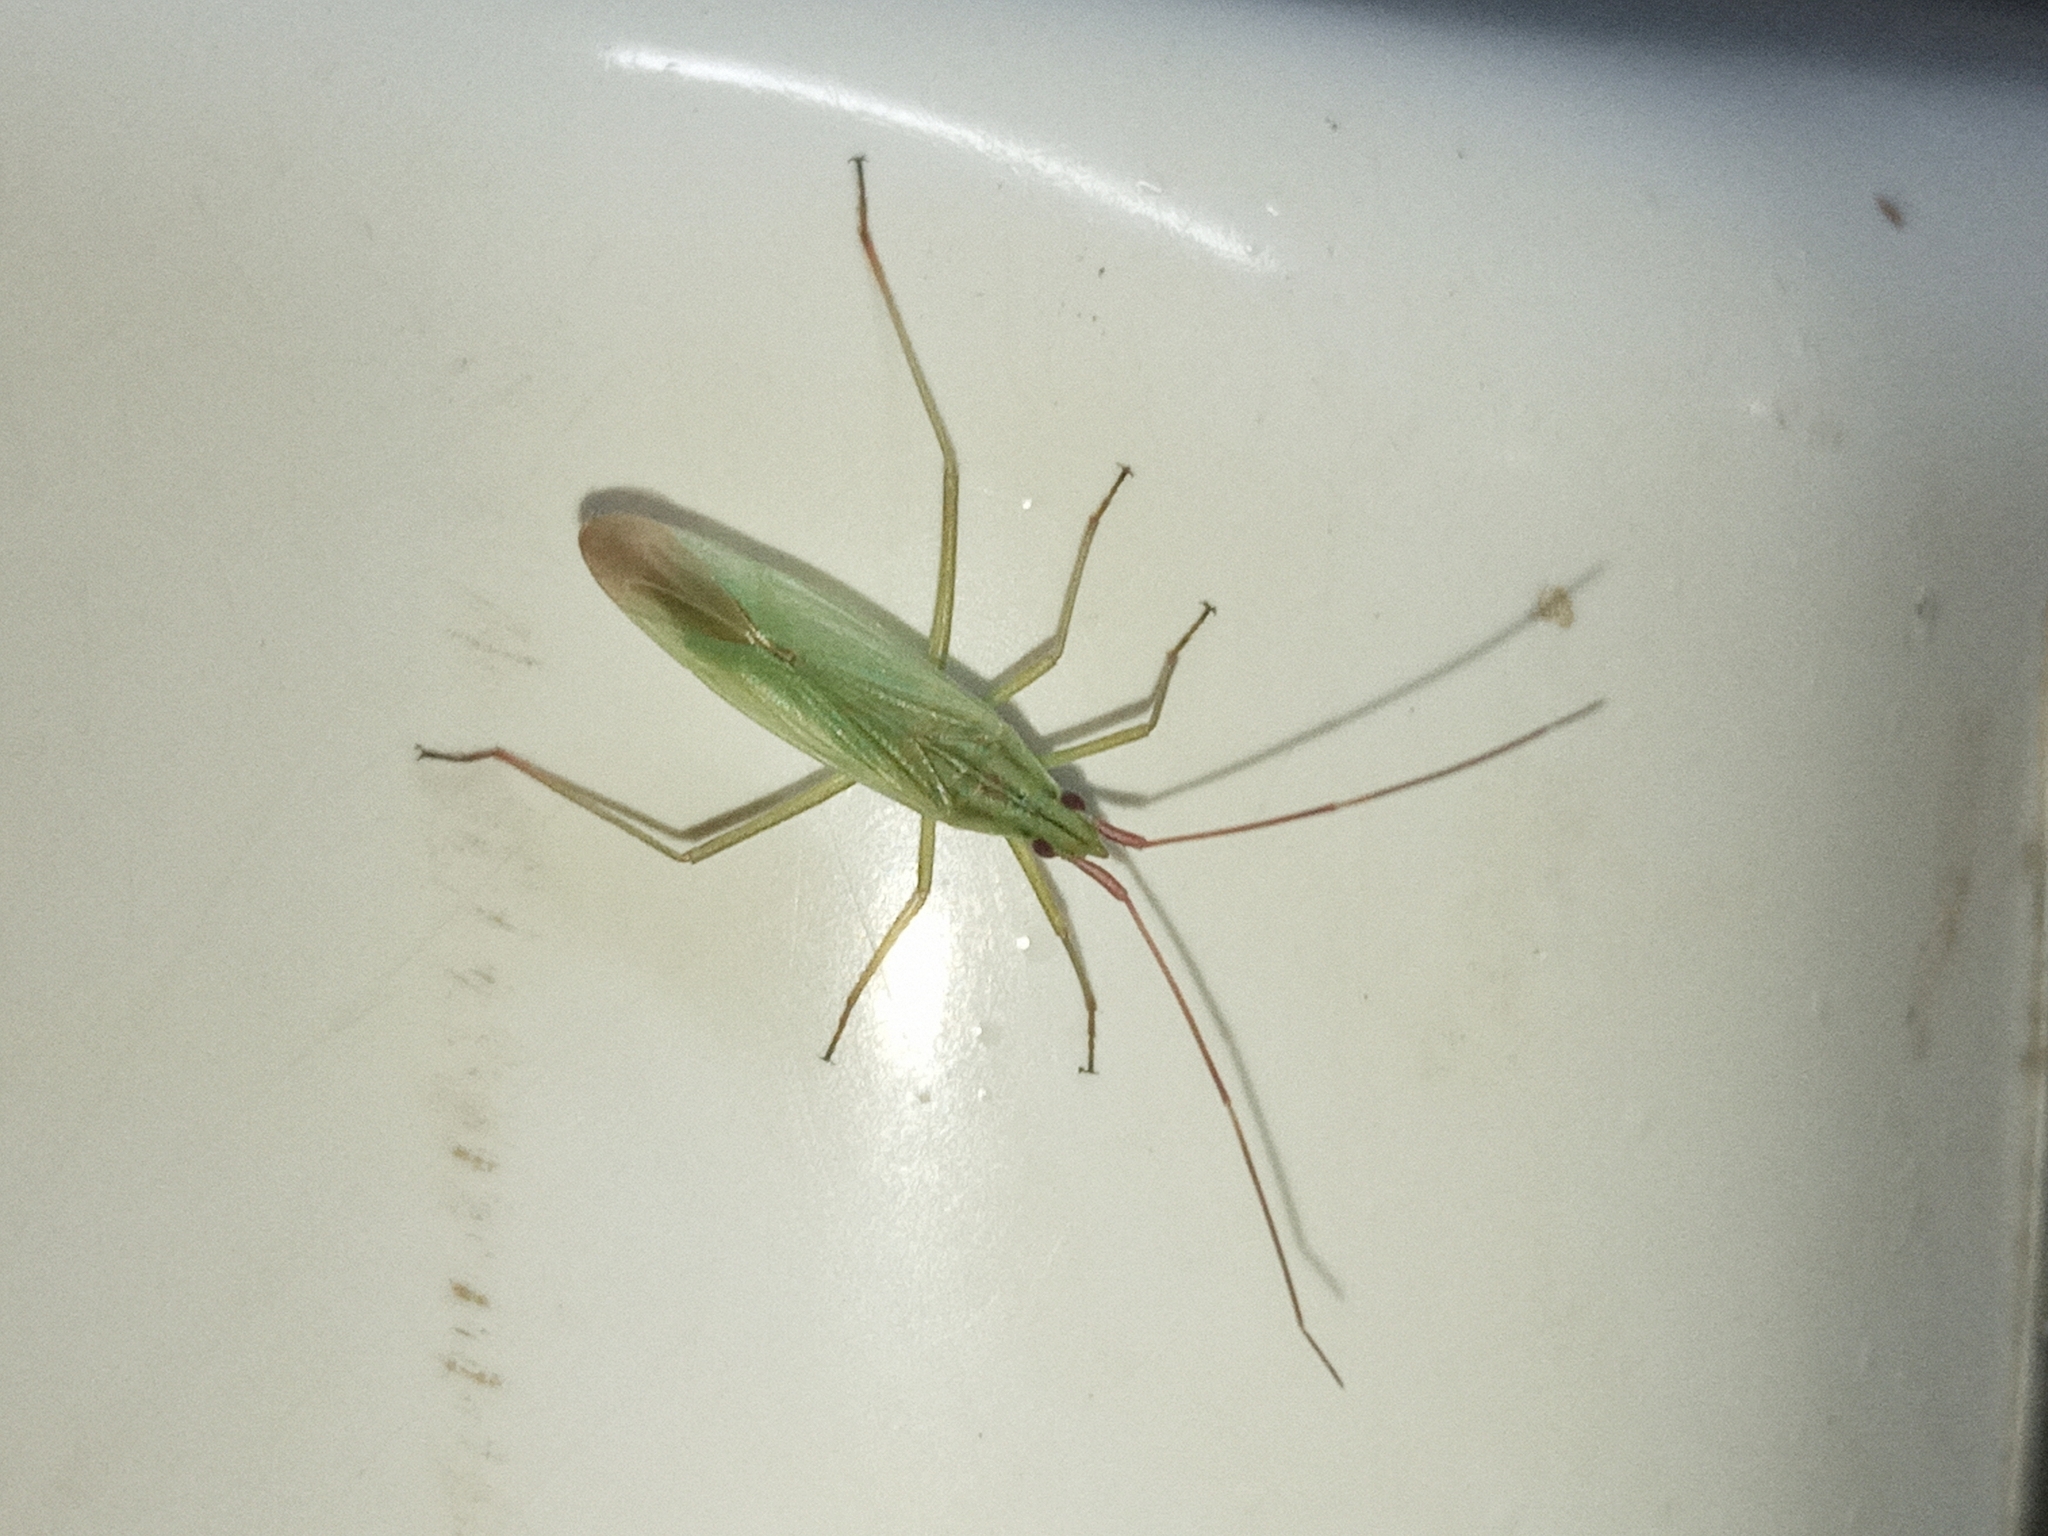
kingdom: Animalia
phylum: Arthropoda
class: Insecta
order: Hemiptera
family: Miridae
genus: Trigonotylus
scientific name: Trigonotylus
